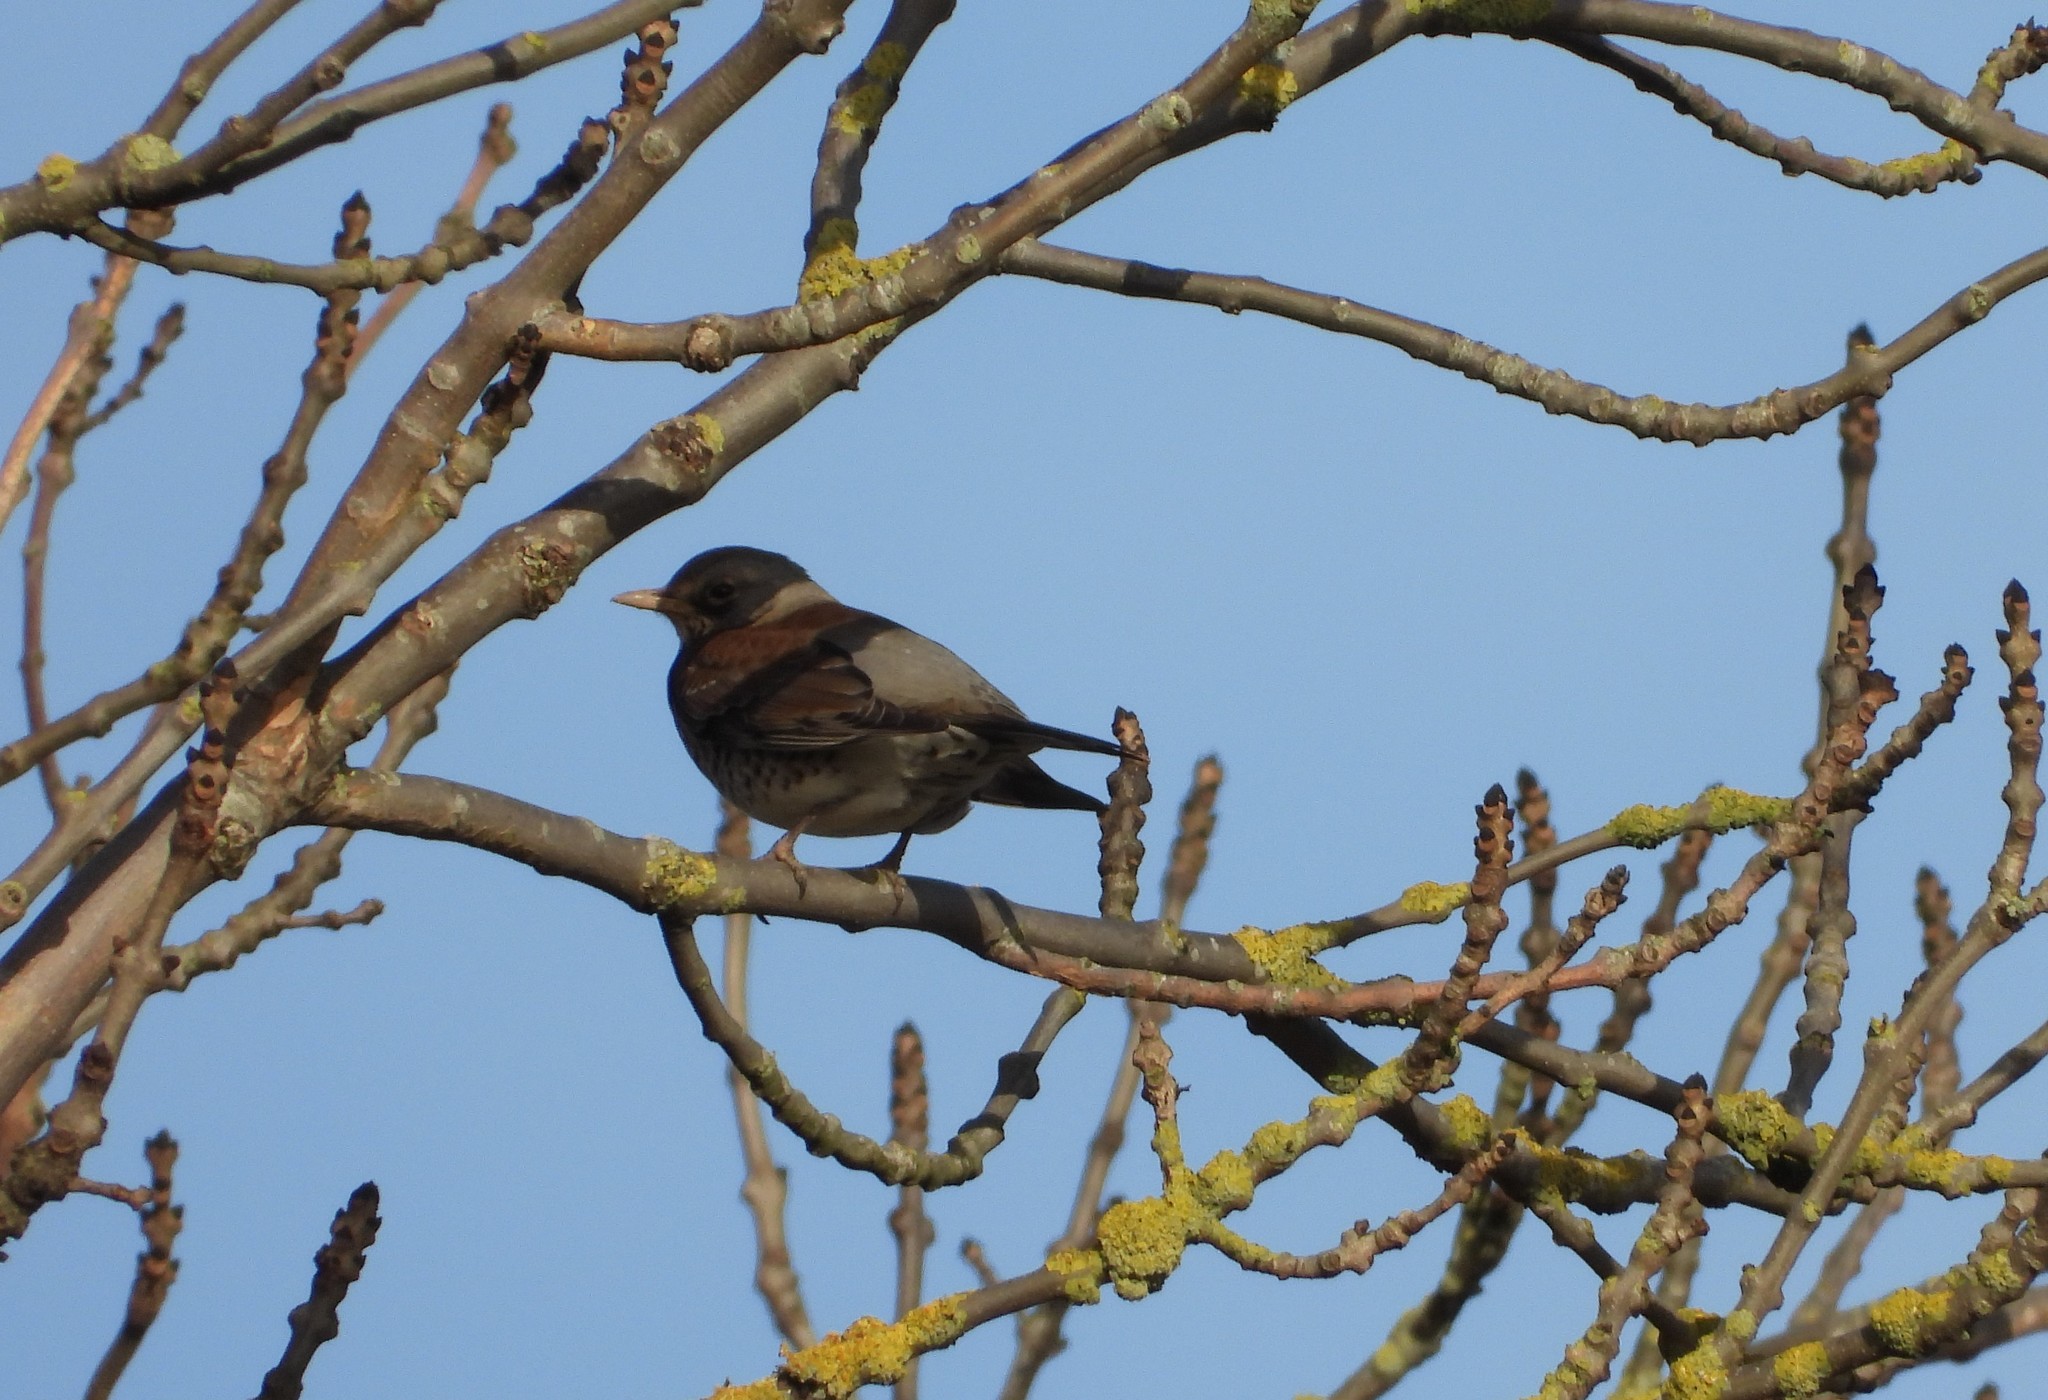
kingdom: Animalia
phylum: Chordata
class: Aves
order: Passeriformes
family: Turdidae
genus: Turdus
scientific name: Turdus pilaris
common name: Fieldfare
